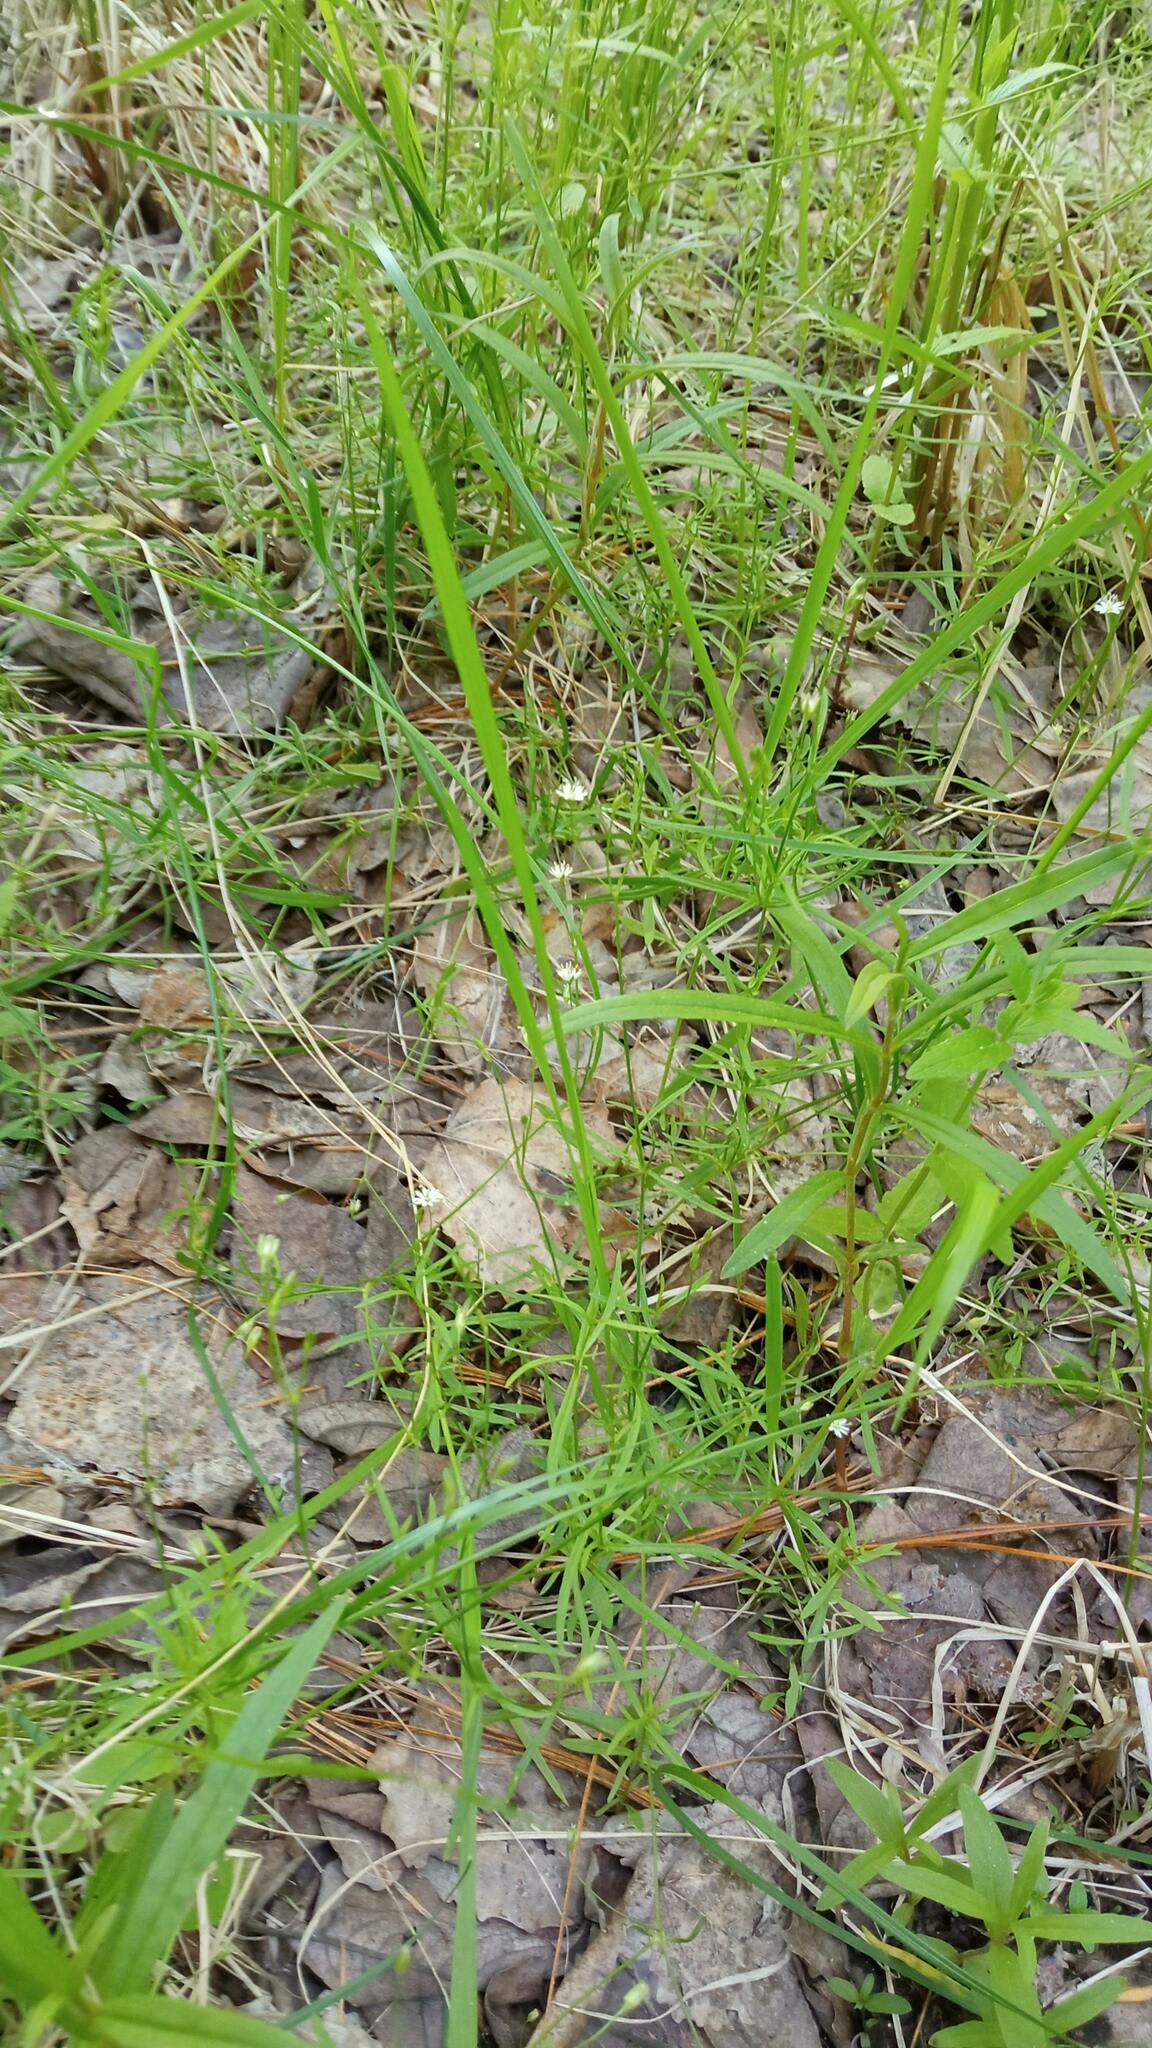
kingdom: Plantae
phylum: Tracheophyta
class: Magnoliopsida
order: Caryophyllales
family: Caryophyllaceae
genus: Stellaria
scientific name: Stellaria longifolia
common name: Long-leaved chickweed
